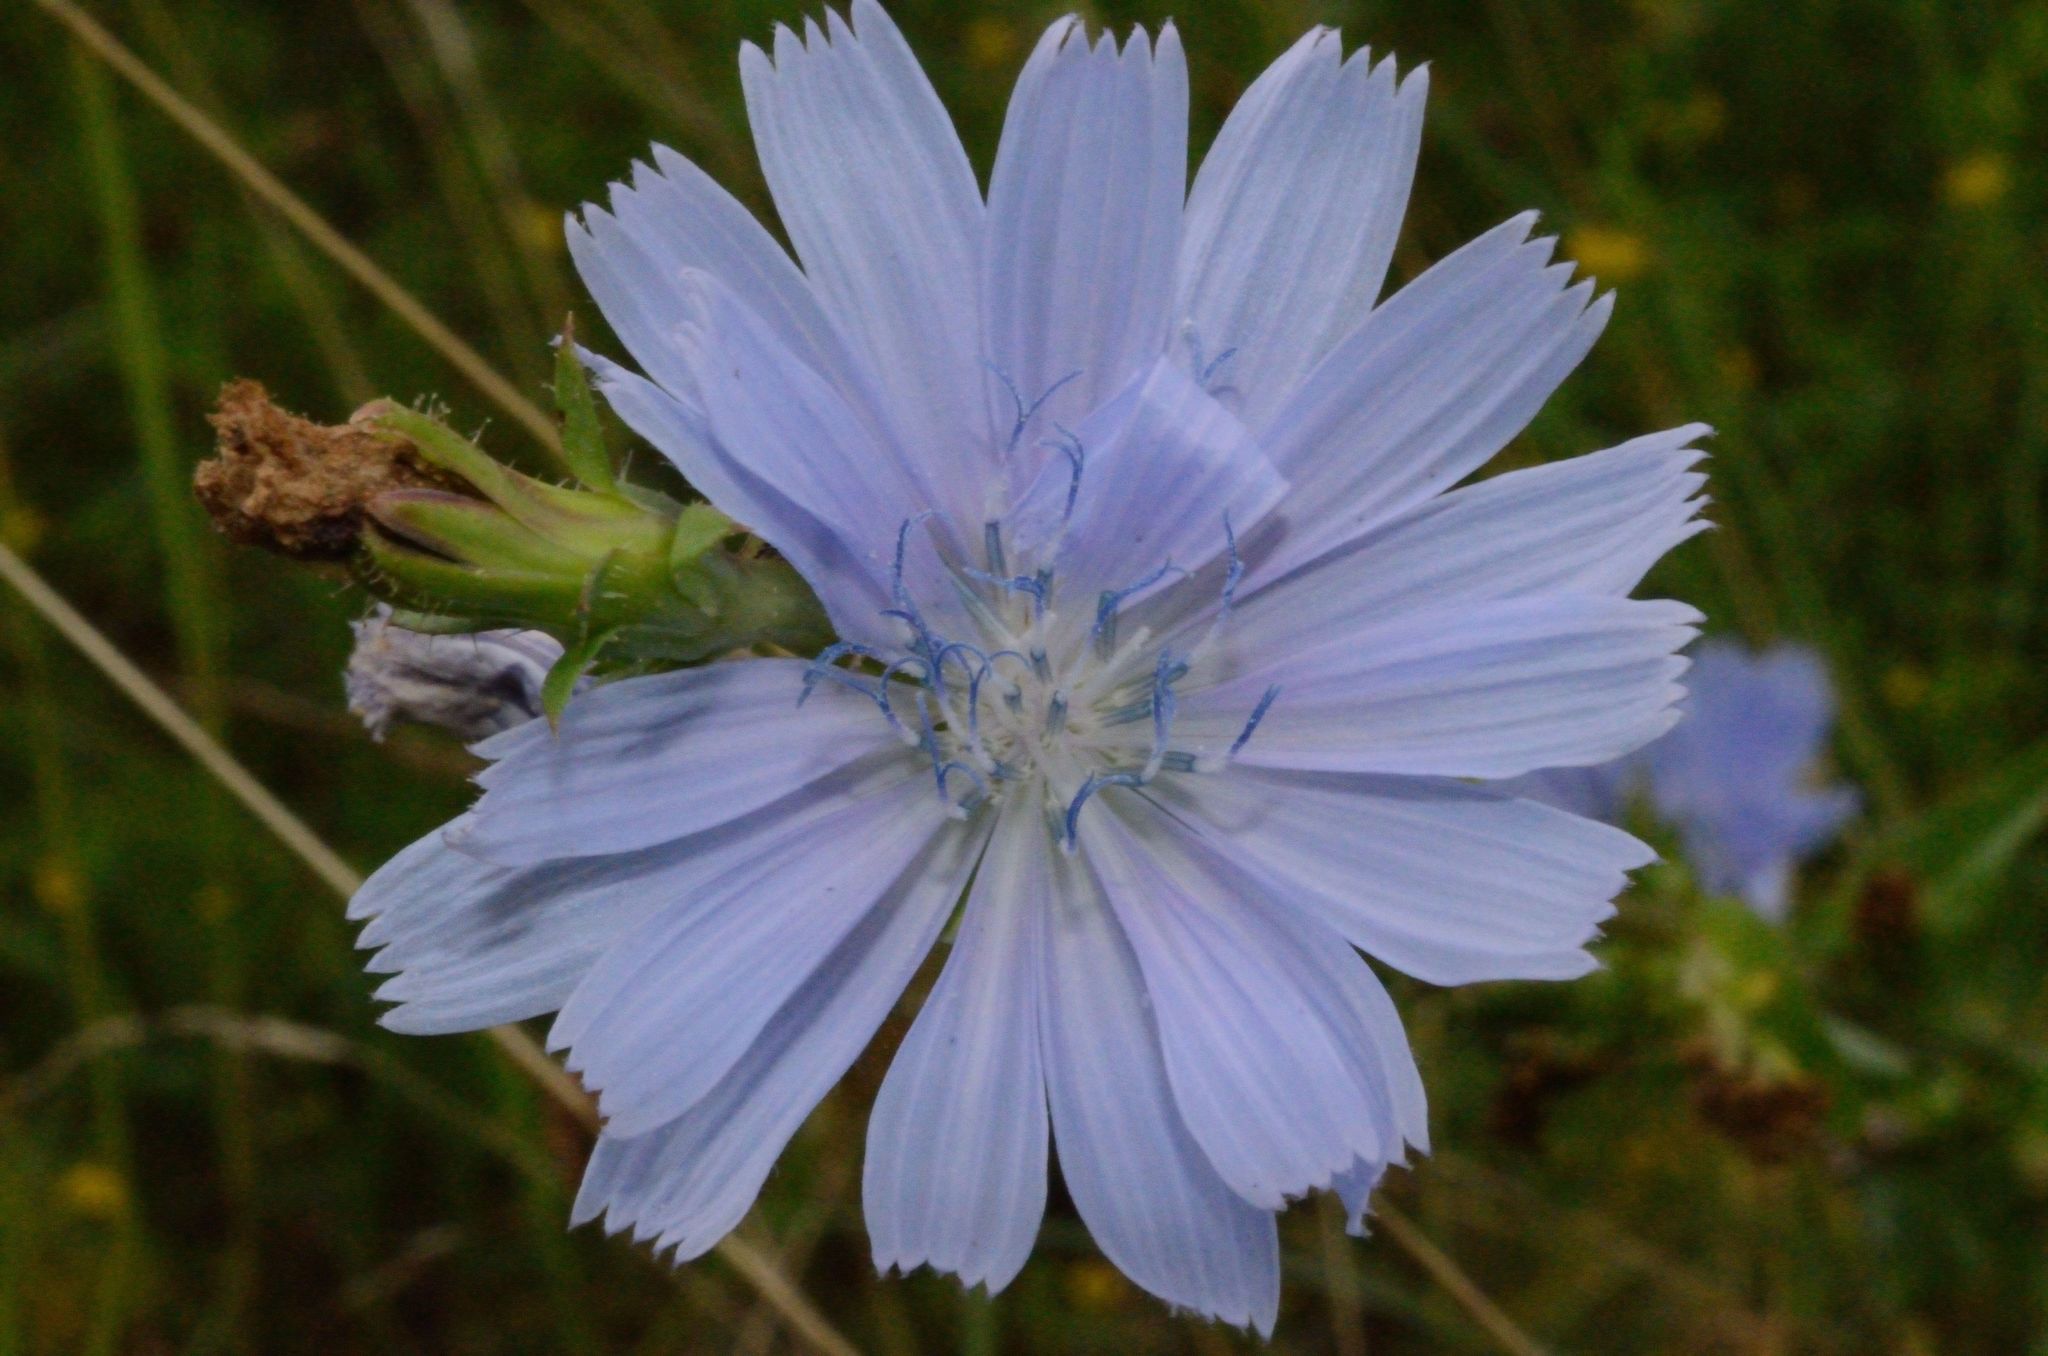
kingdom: Plantae
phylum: Tracheophyta
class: Magnoliopsida
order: Asterales
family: Asteraceae
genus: Cichorium
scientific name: Cichorium intybus
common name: Chicory
